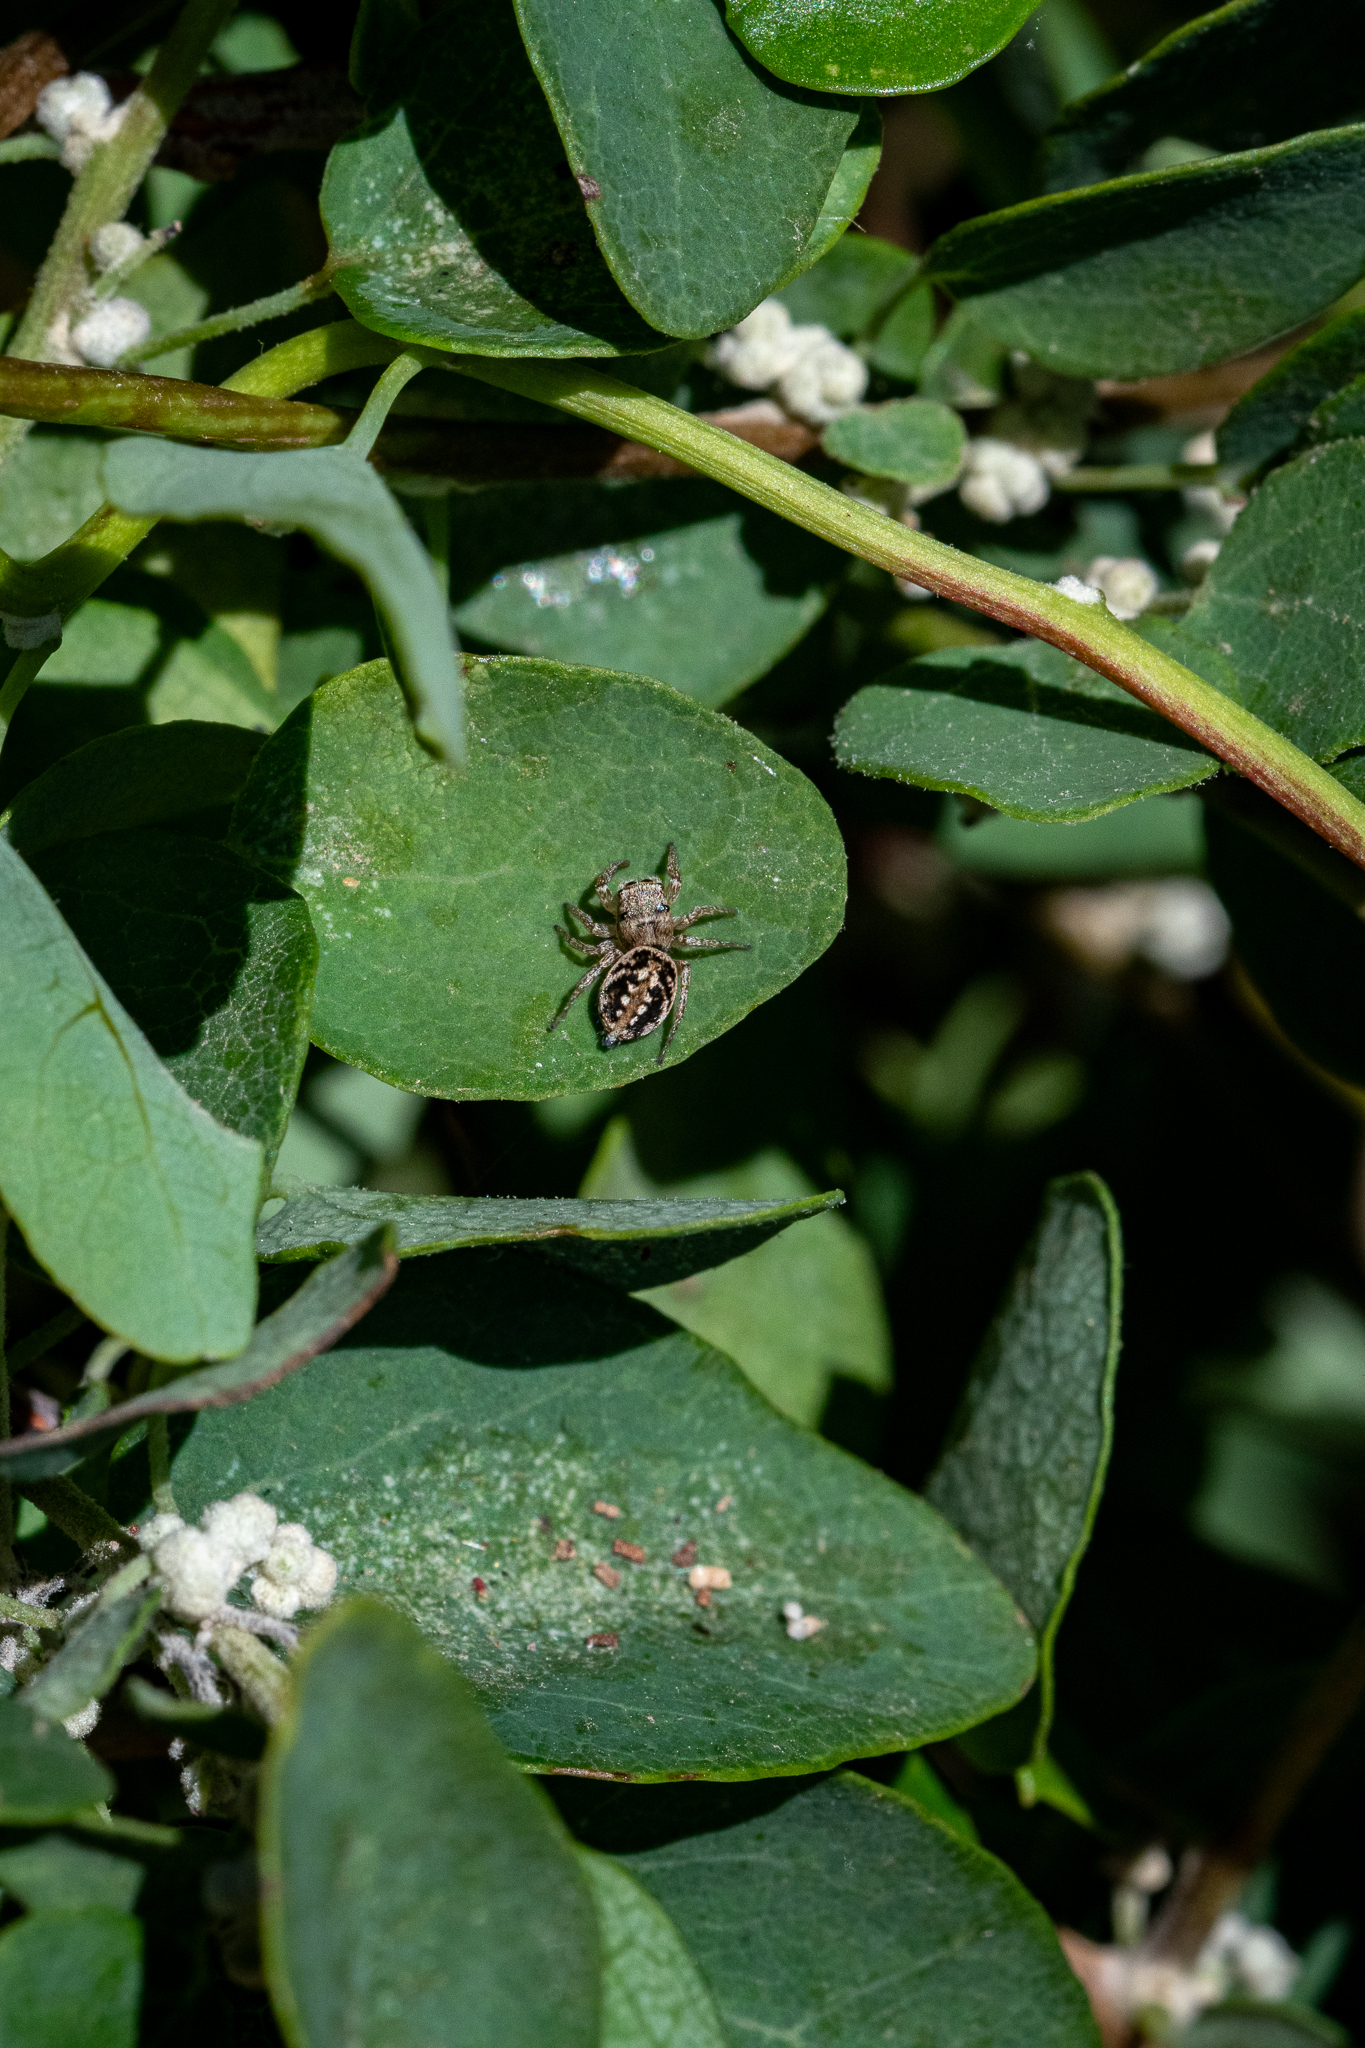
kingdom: Plantae
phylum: Tracheophyta
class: Magnoliopsida
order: Ranunculales
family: Menispermaceae
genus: Cissampelos
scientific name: Cissampelos capensis
